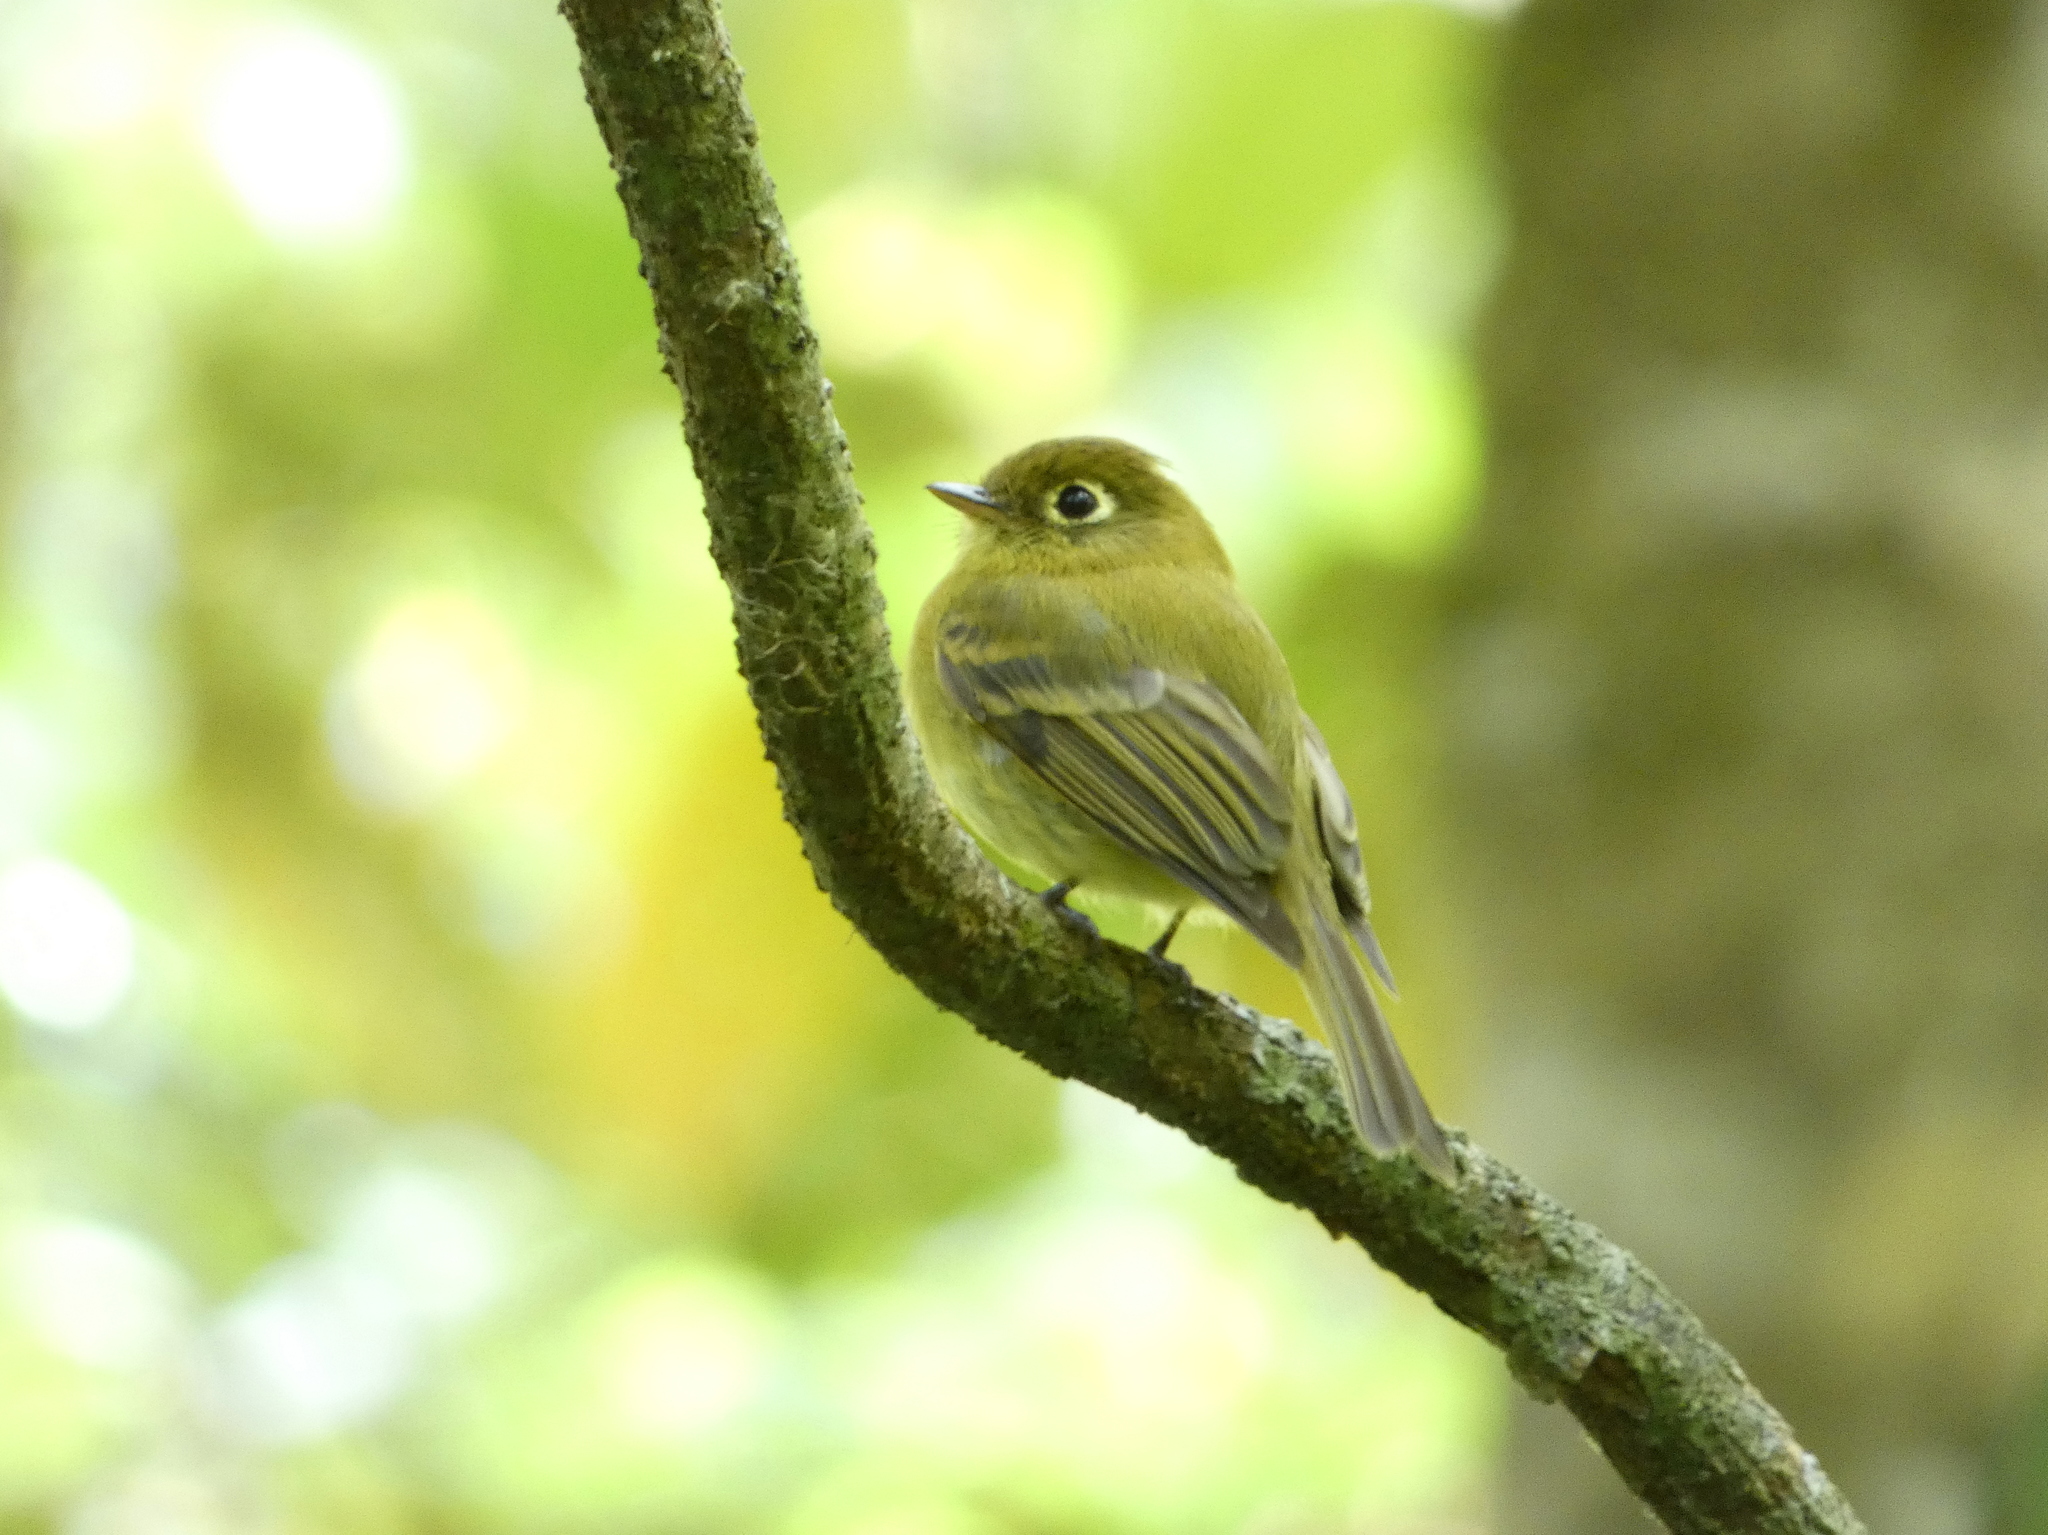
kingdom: Animalia
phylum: Chordata
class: Aves
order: Passeriformes
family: Tyrannidae
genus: Empidonax
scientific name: Empidonax flavescens
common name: Yellowish flycatcher
